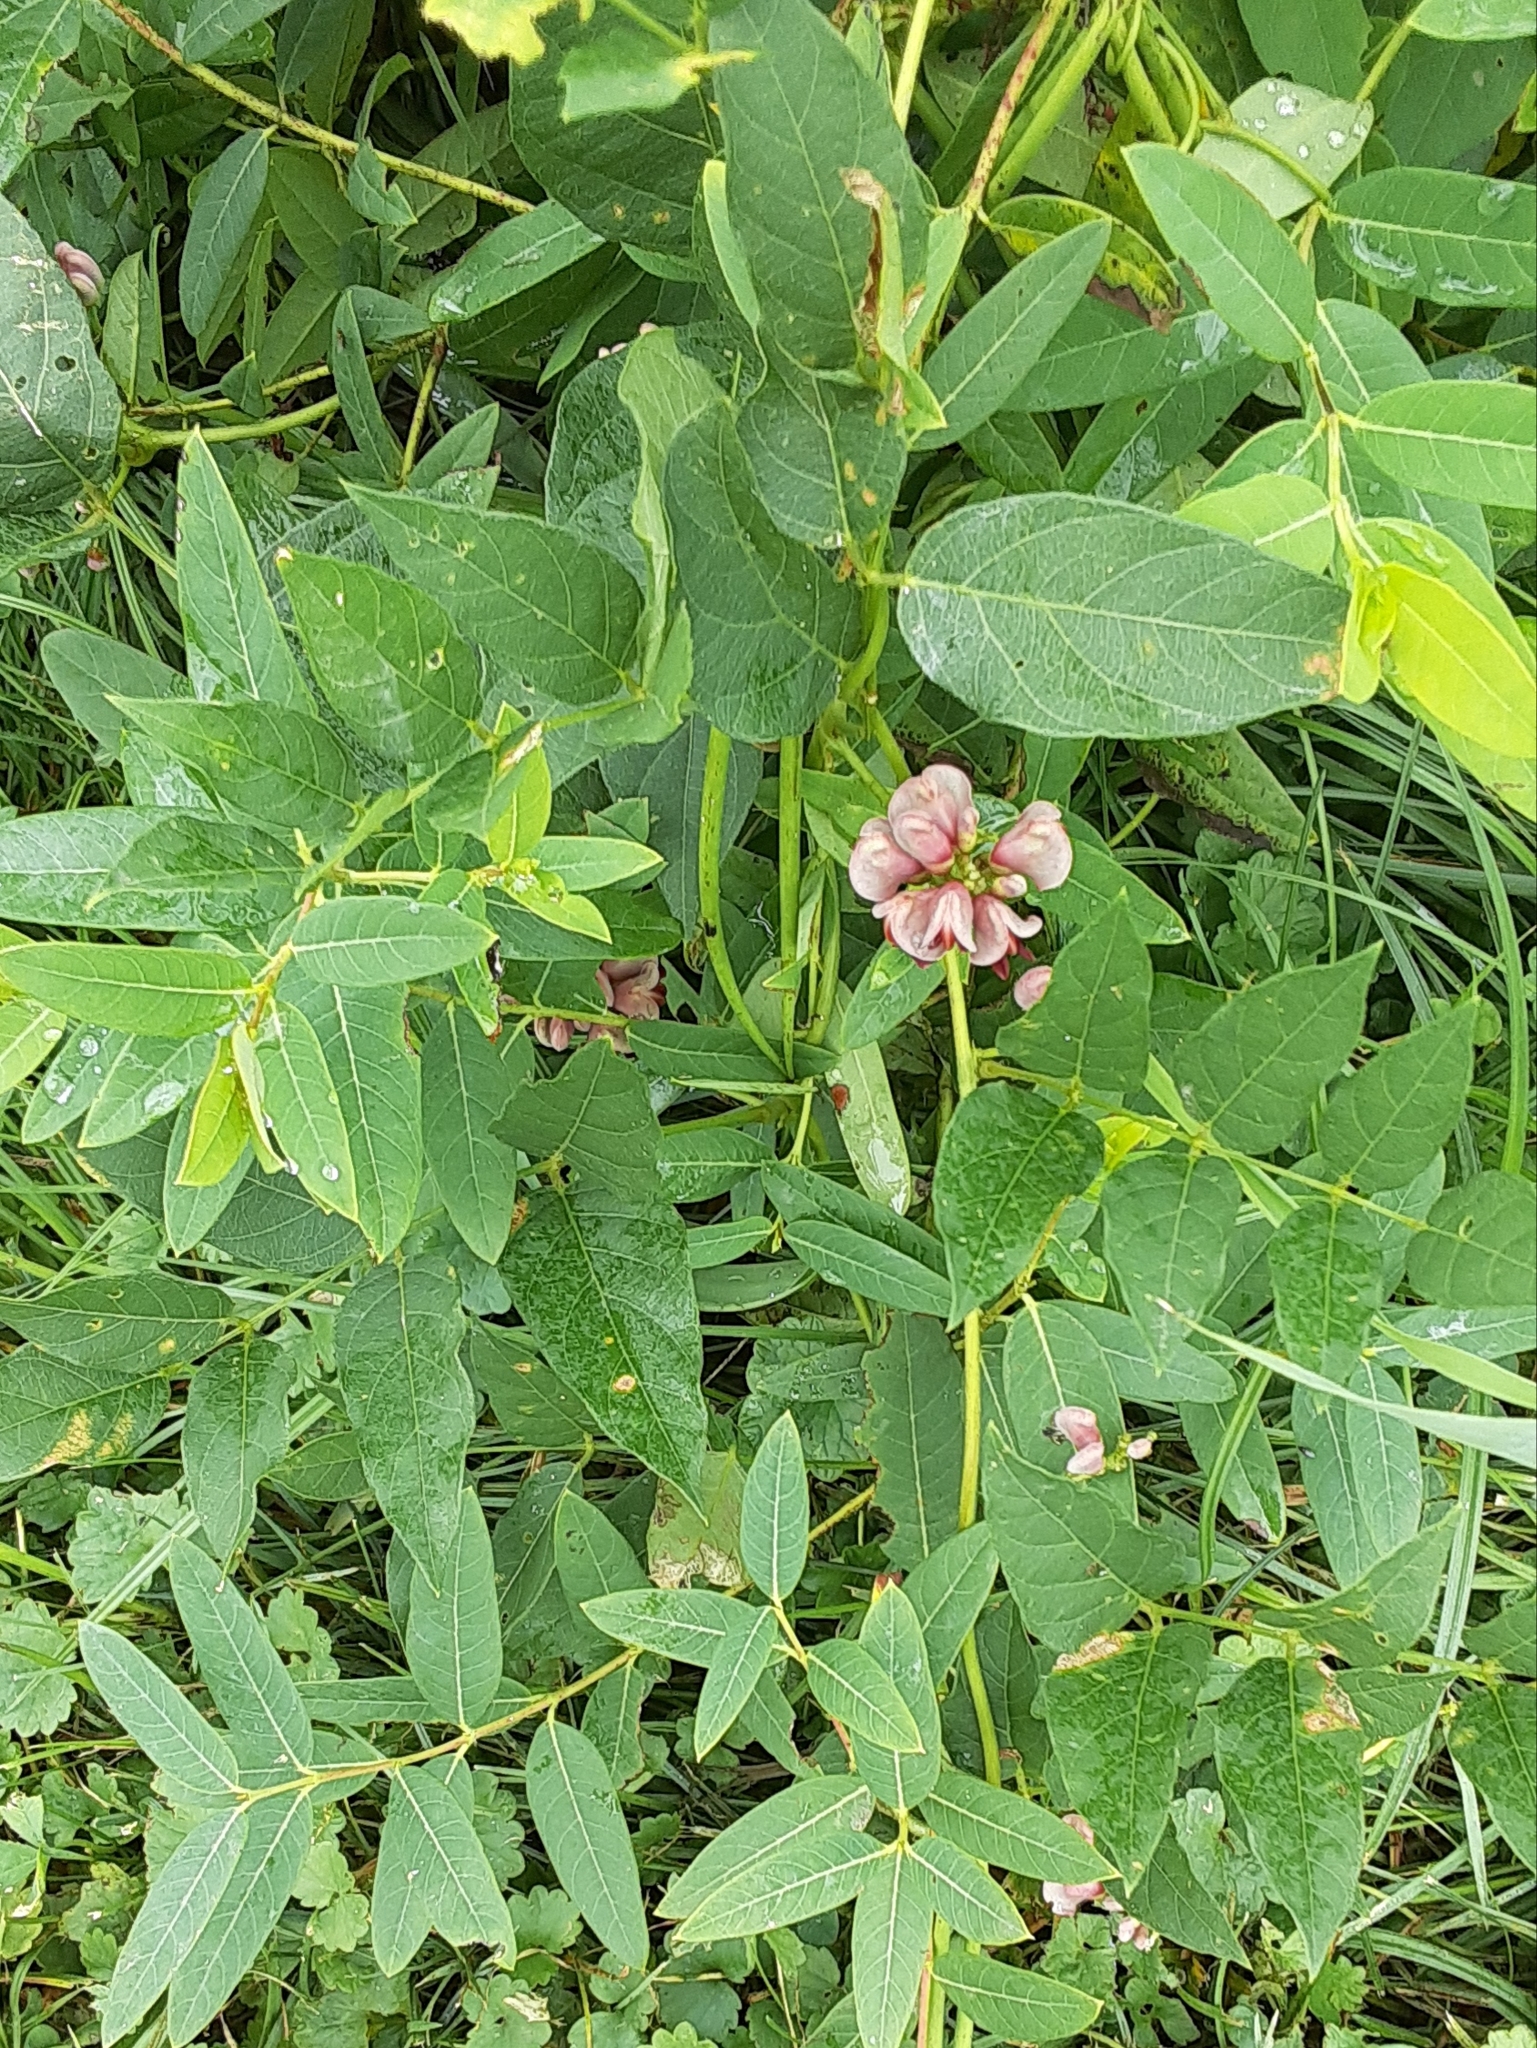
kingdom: Plantae
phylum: Tracheophyta
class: Magnoliopsida
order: Fabales
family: Fabaceae
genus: Apios
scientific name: Apios americana
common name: American potato-bean
